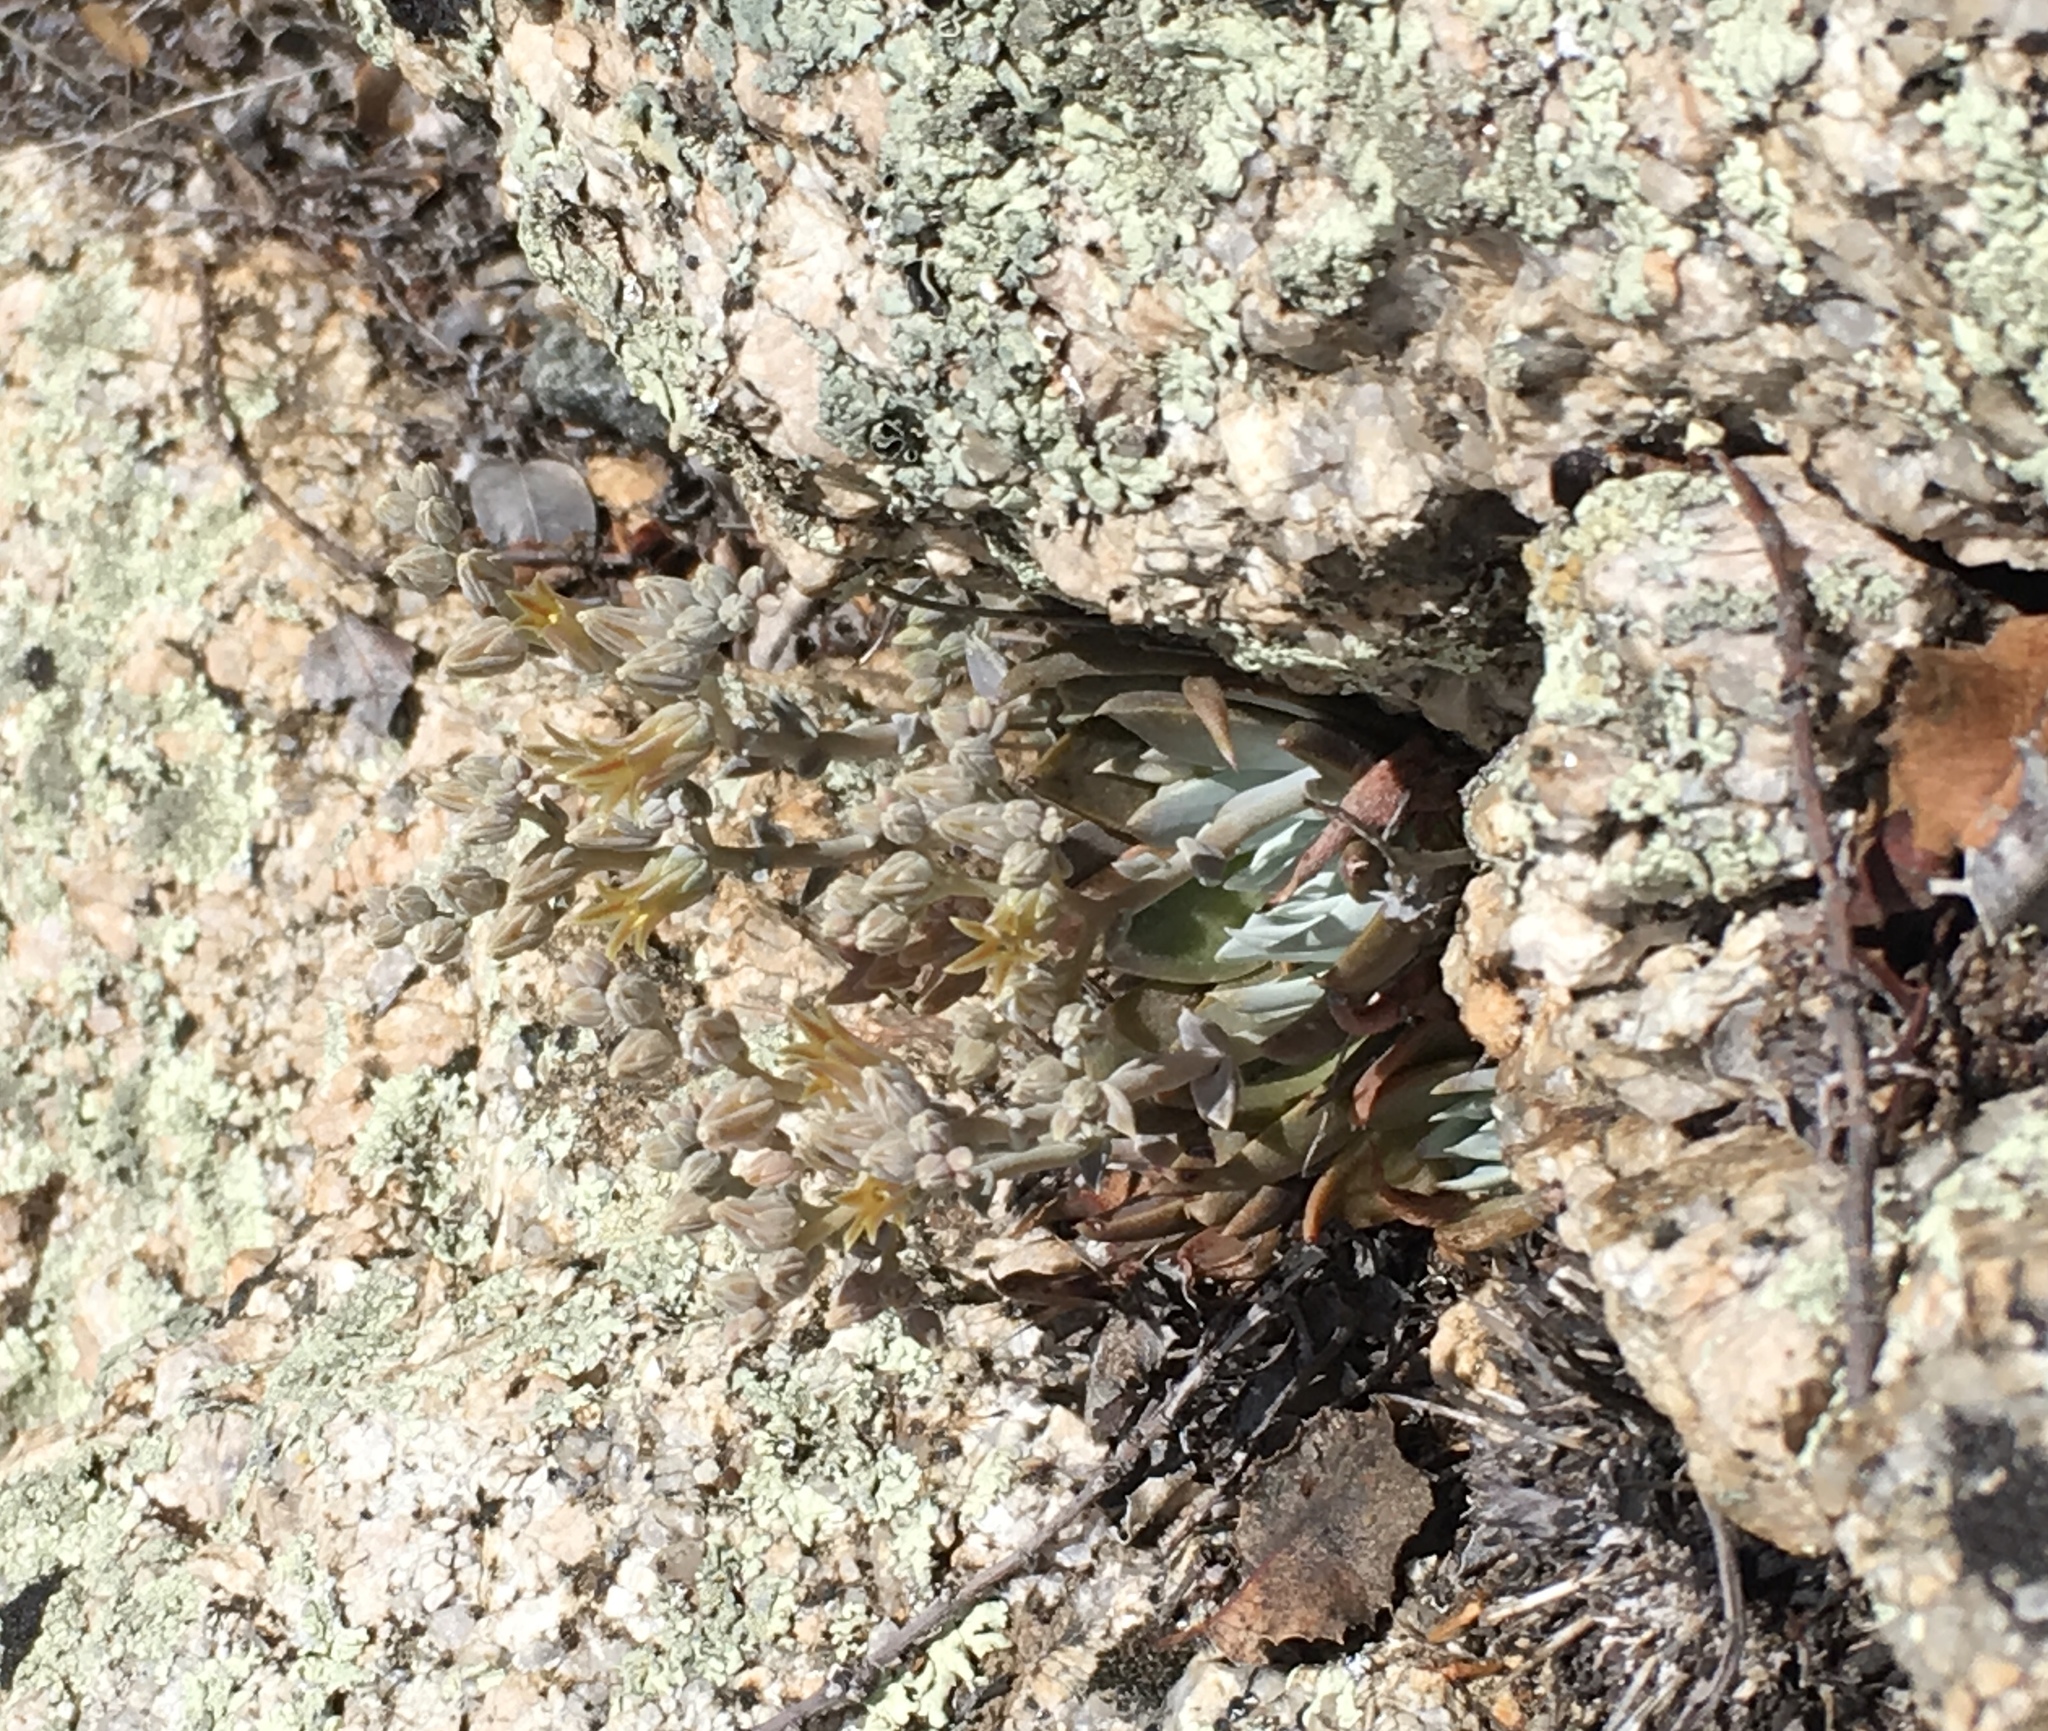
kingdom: Plantae
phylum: Tracheophyta
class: Magnoliopsida
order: Saxifragales
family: Crassulaceae
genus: Dudleya
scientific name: Dudleya abramsii
